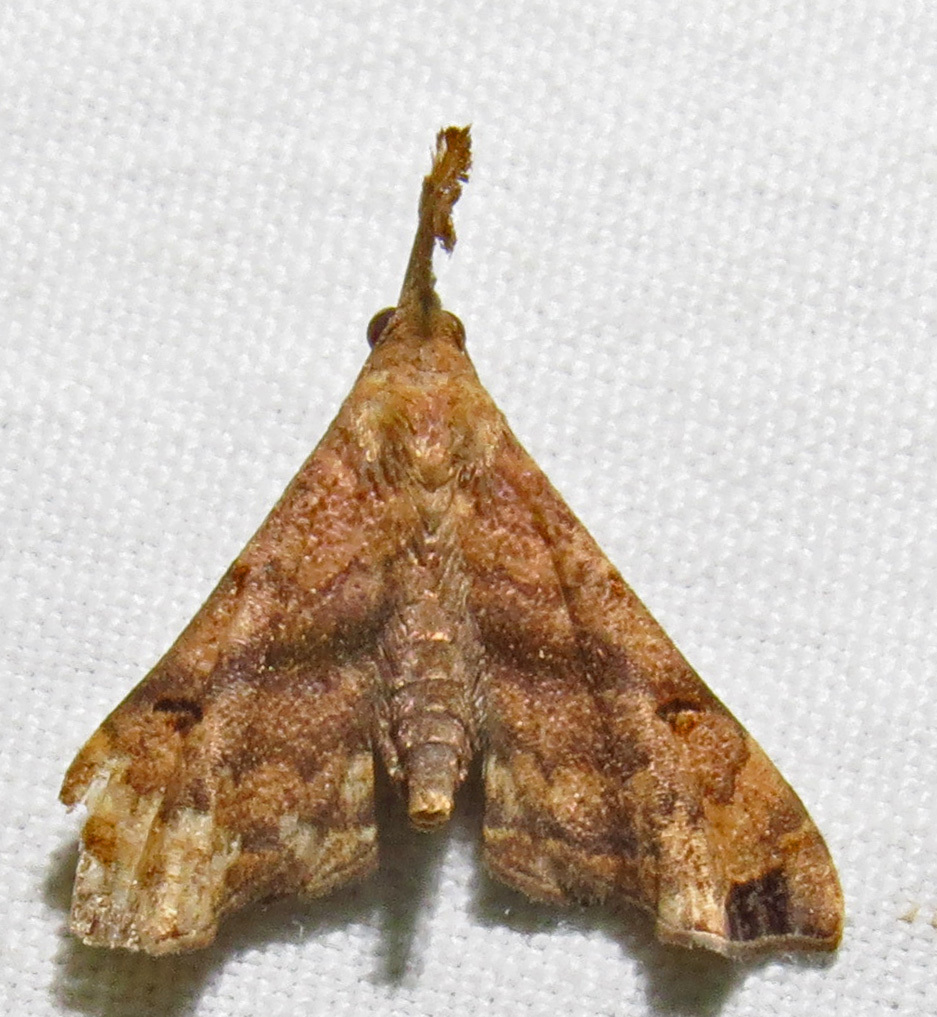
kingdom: Animalia
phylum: Arthropoda
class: Insecta
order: Lepidoptera
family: Erebidae
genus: Palthis
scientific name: Palthis asopialis
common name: Faint-spotted palthis moth
